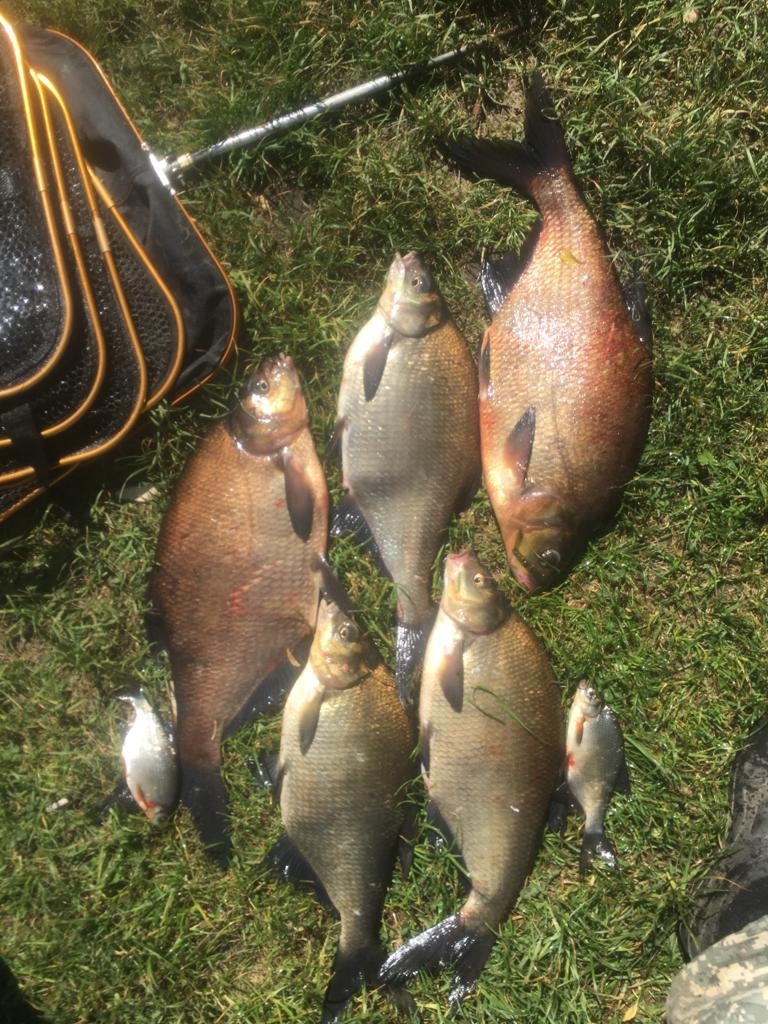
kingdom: Animalia
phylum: Chordata
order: Cypriniformes
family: Cyprinidae
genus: Abramis
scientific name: Abramis brama
